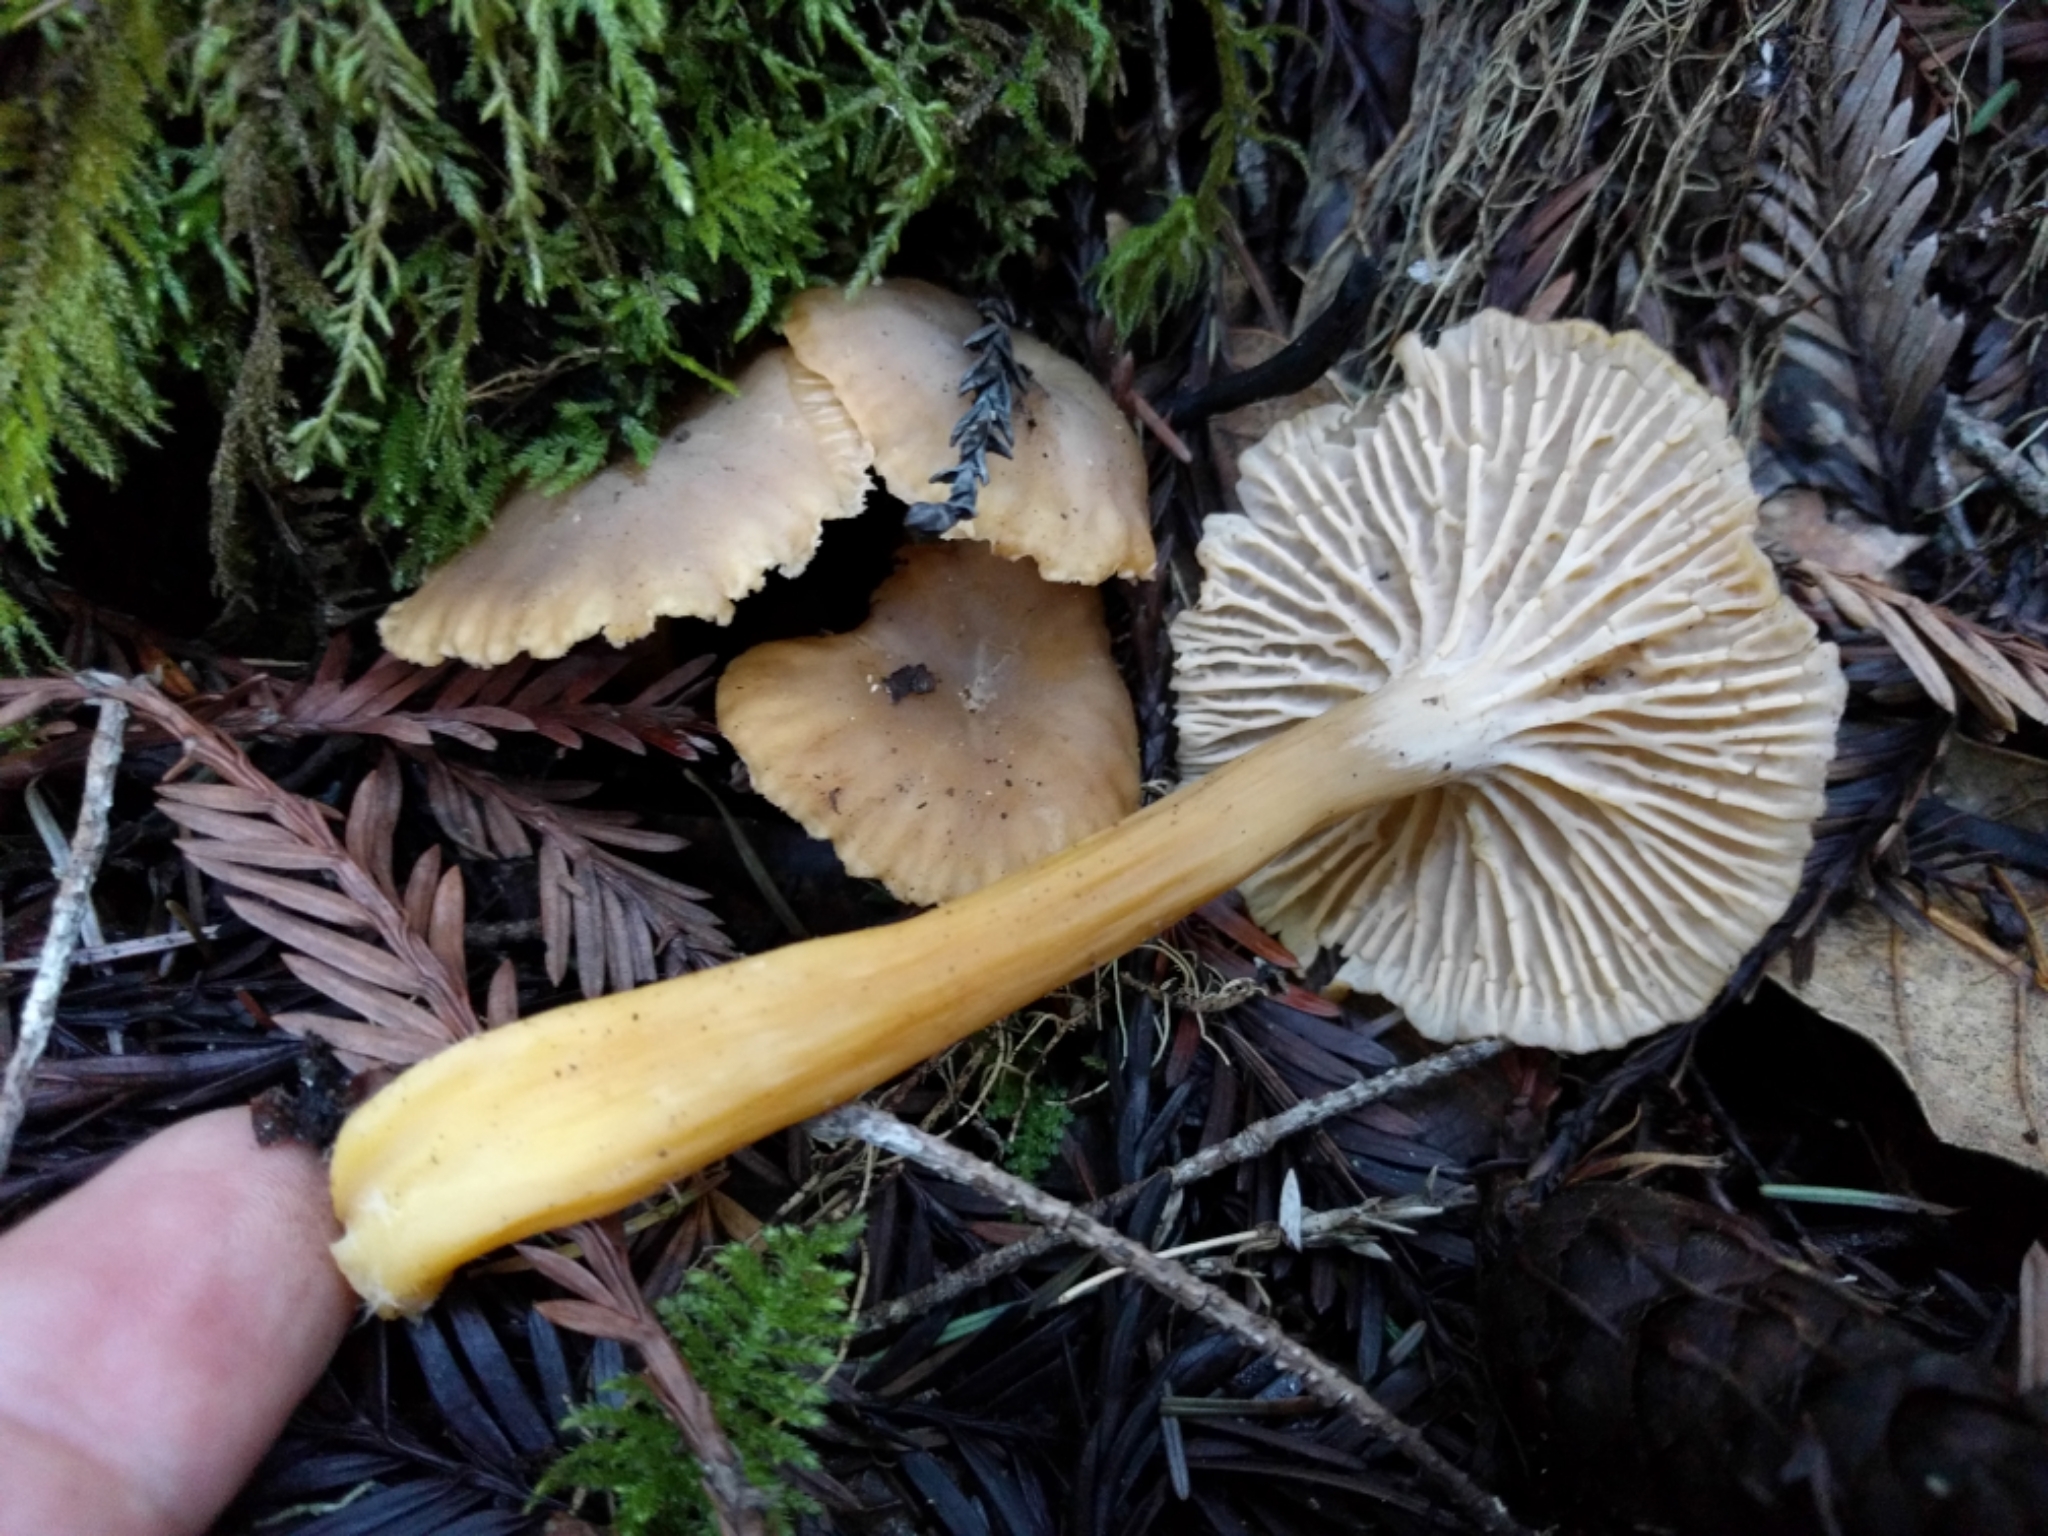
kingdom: Fungi
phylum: Basidiomycota
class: Agaricomycetes
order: Cantharellales
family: Hydnaceae
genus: Craterellus
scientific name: Craterellus tubaeformis
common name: Yellowfoot
